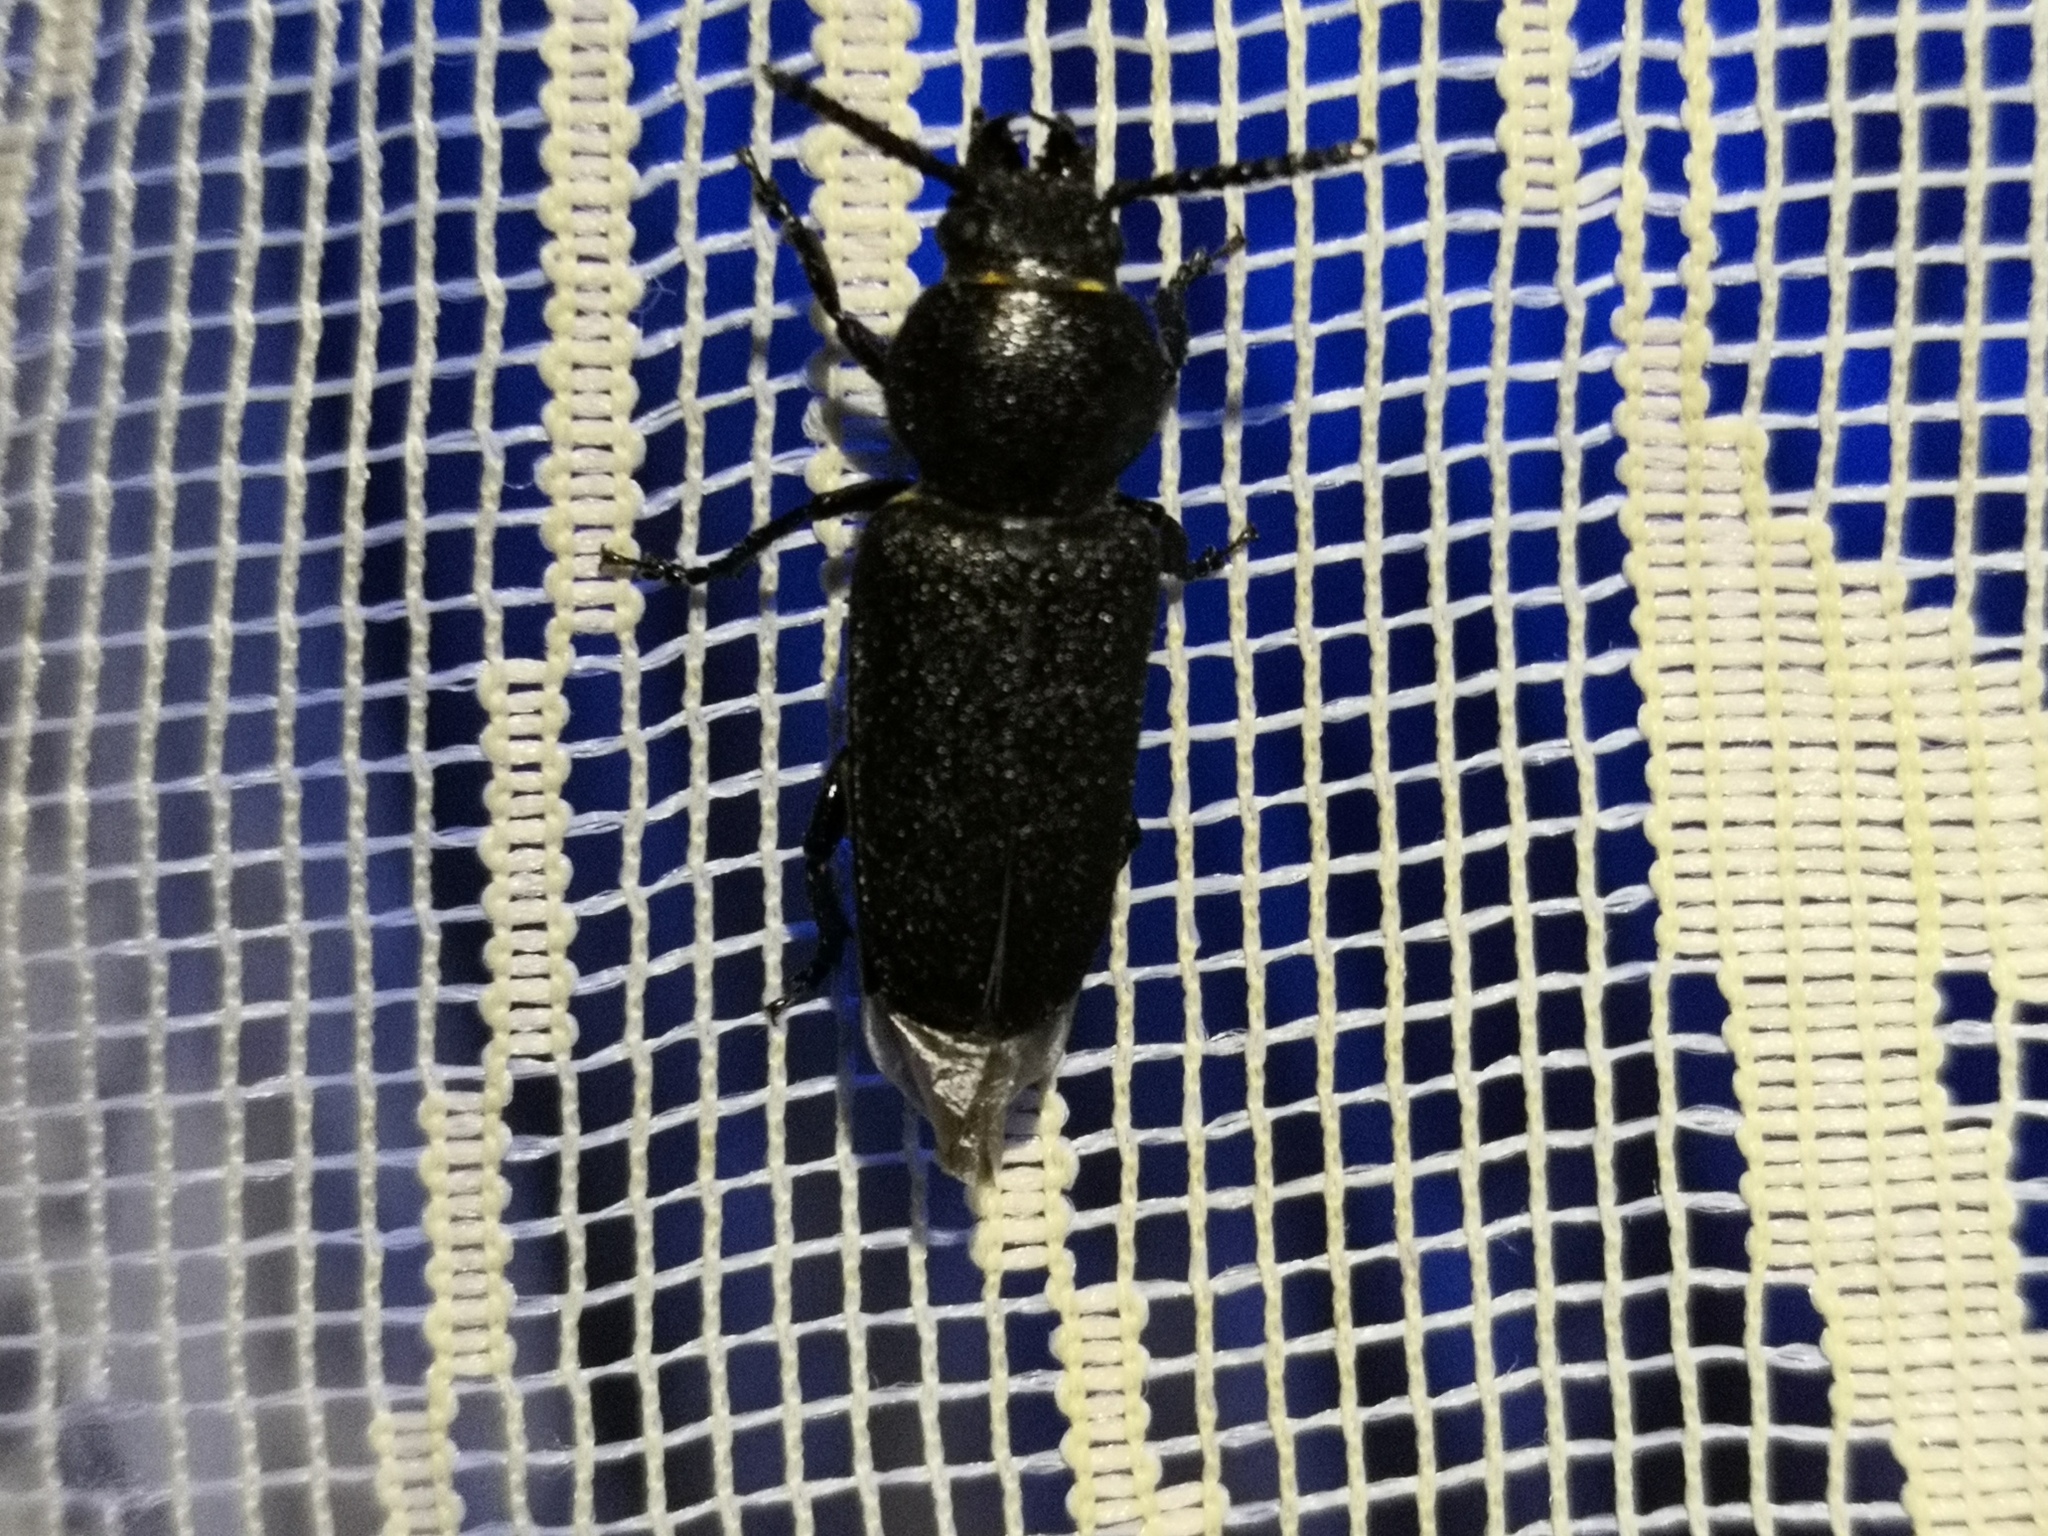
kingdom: Animalia
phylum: Arthropoda
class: Insecta
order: Coleoptera
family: Cerambycidae
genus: Spondylis
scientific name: Spondylis buprestoides
